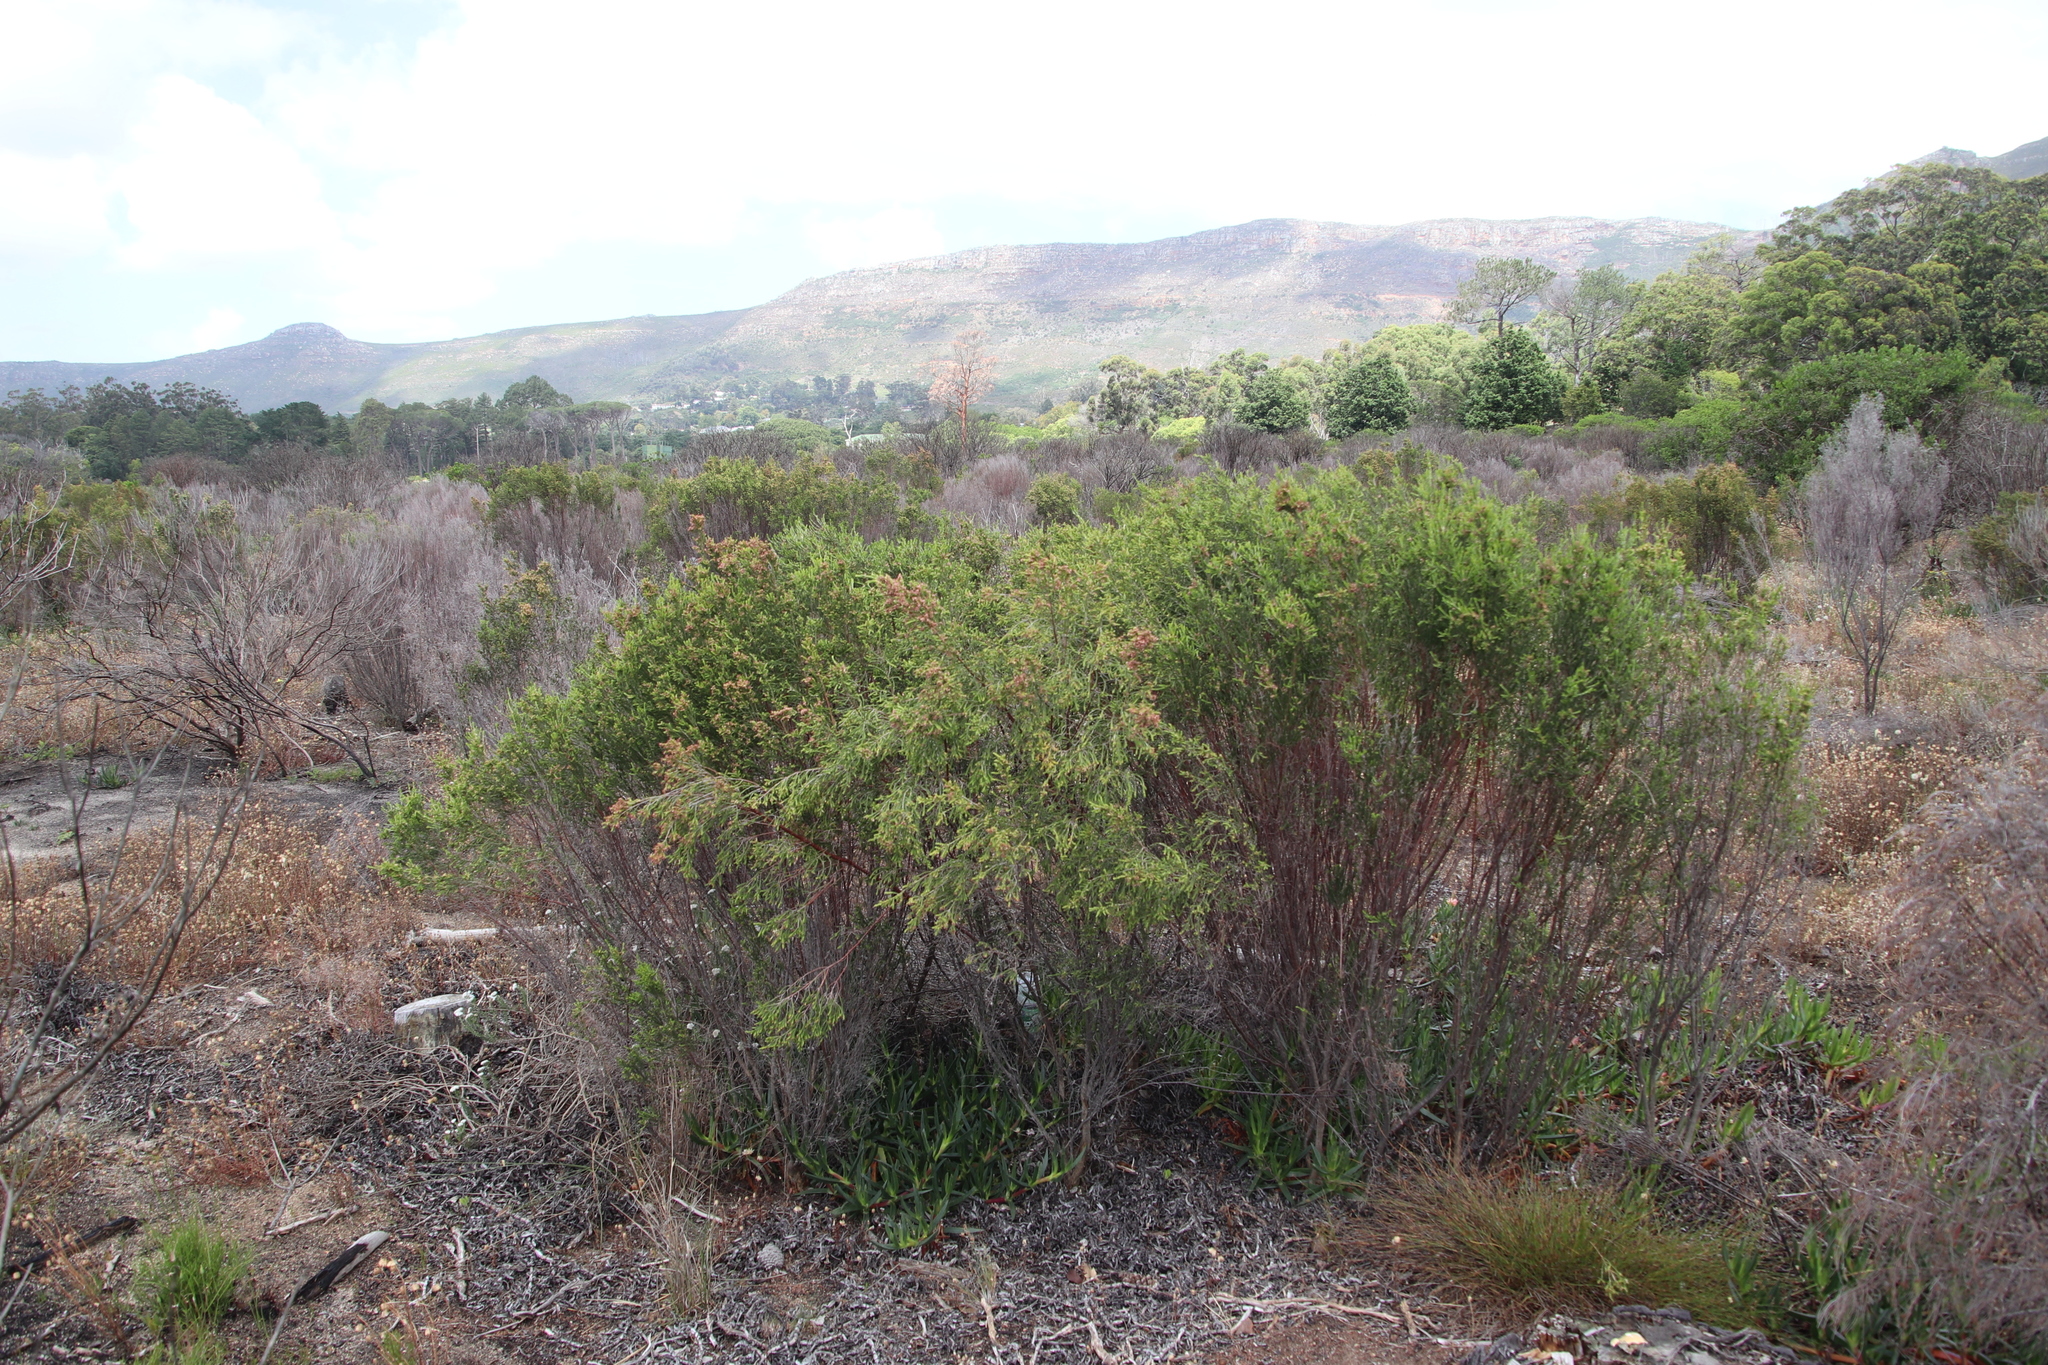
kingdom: Plantae
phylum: Tracheophyta
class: Magnoliopsida
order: Malvales
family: Thymelaeaceae
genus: Passerina
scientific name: Passerina corymbosa
